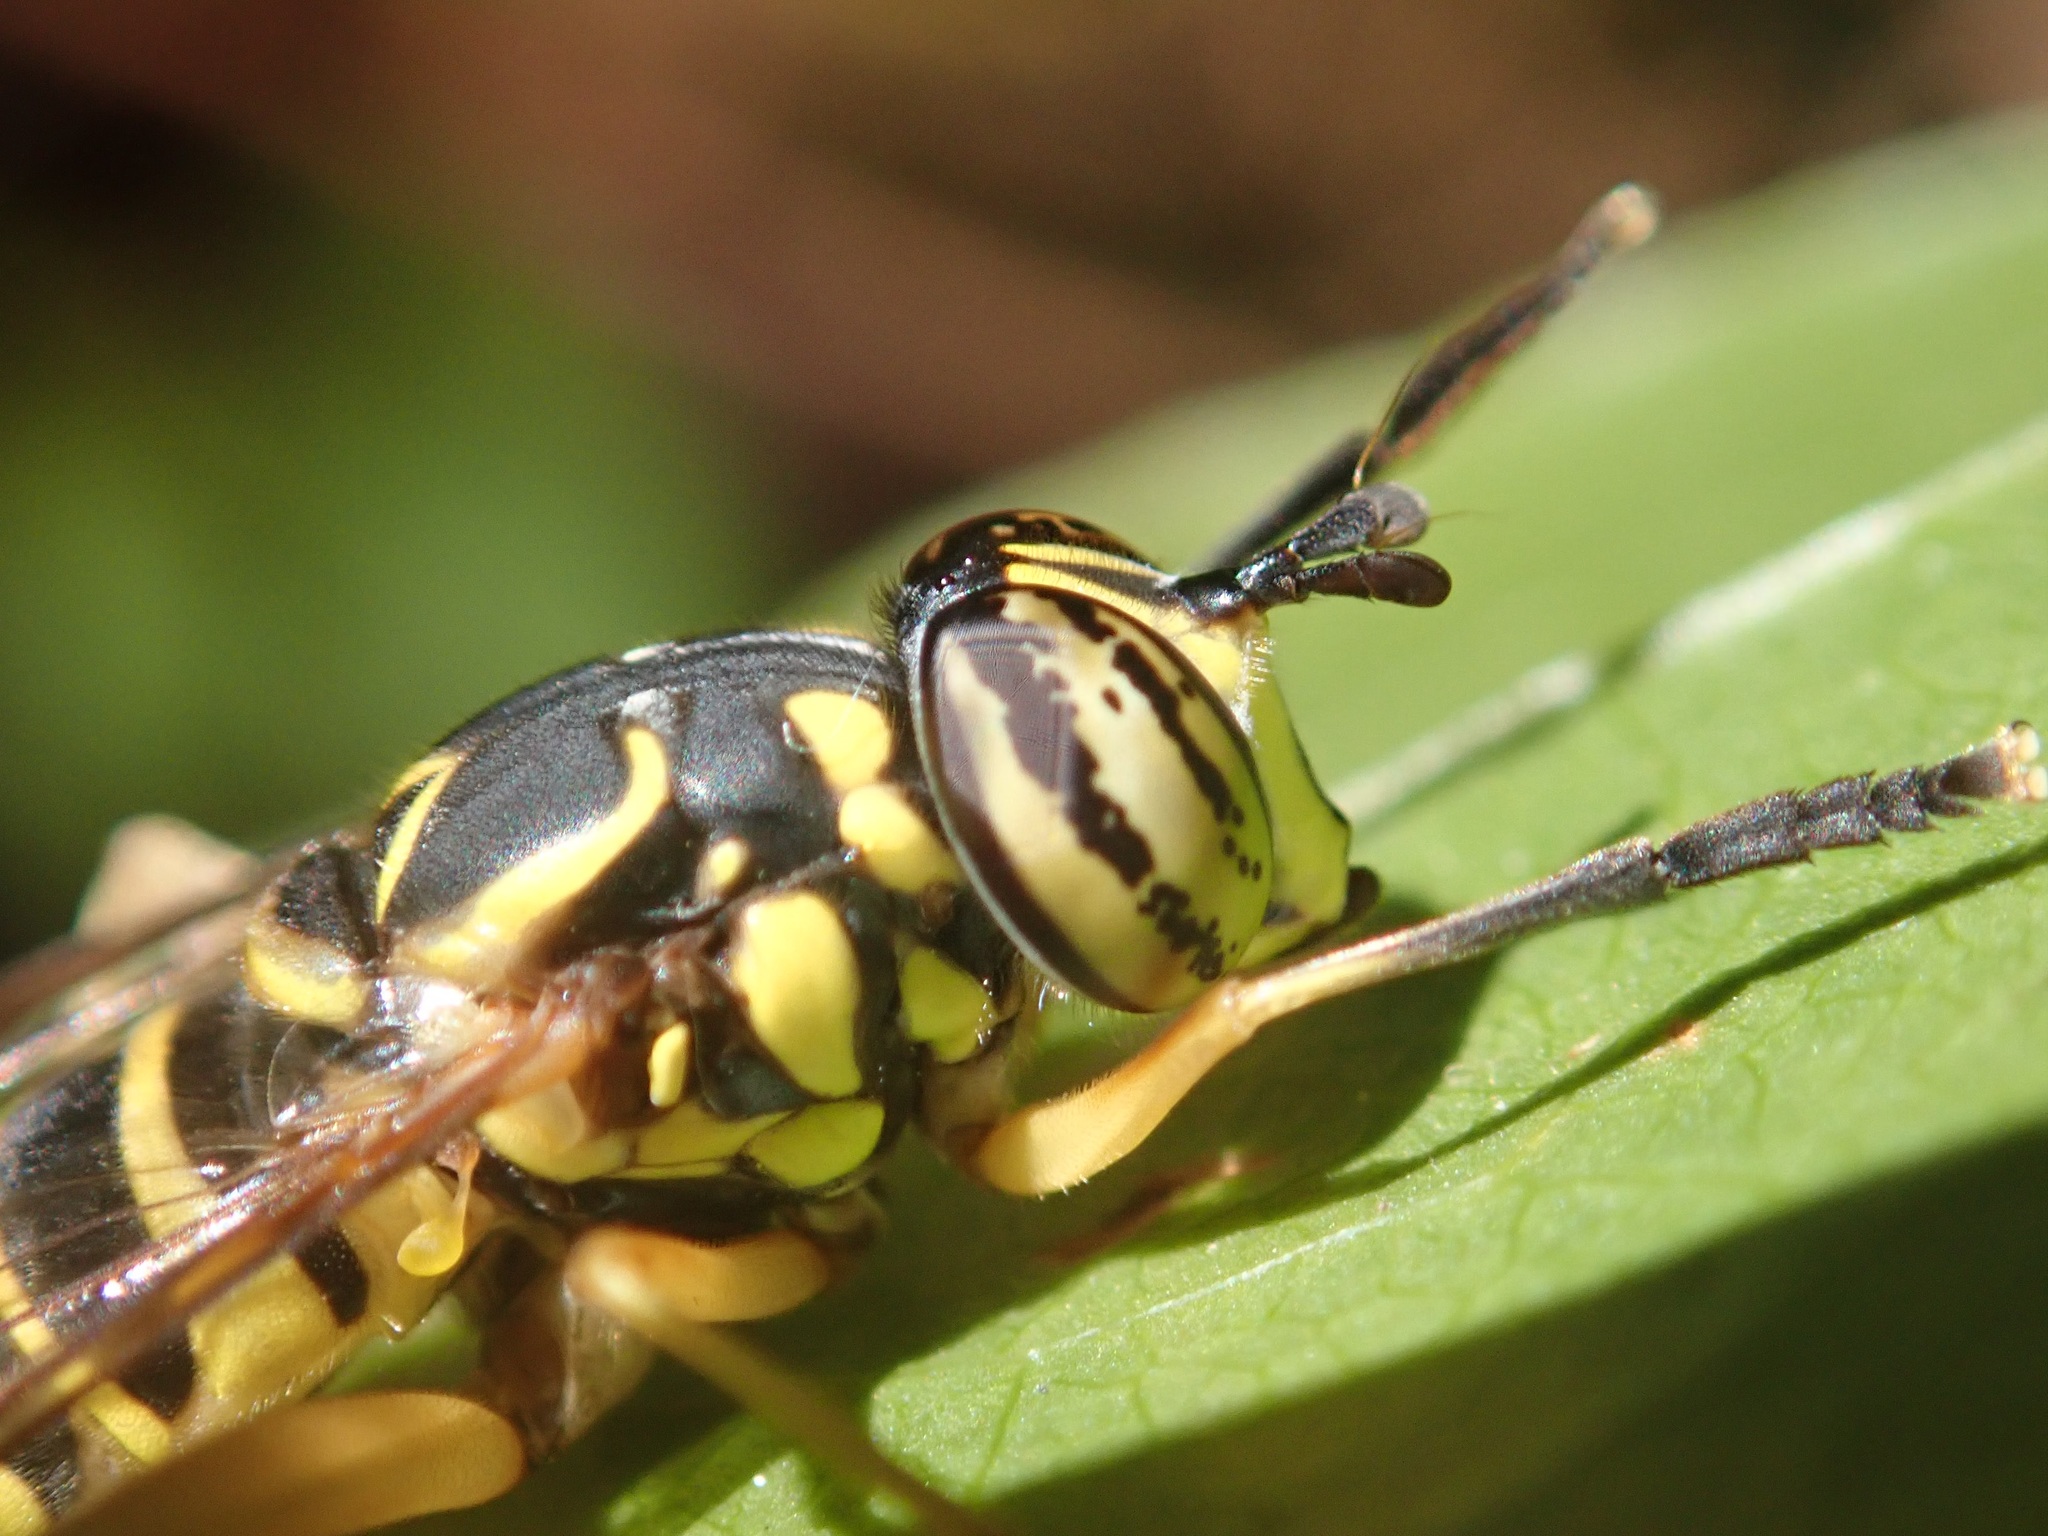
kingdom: Animalia
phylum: Arthropoda
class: Insecta
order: Diptera
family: Syrphidae
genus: Spilomyia
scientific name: Spilomyia longicornis
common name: Eastern hornet fly
